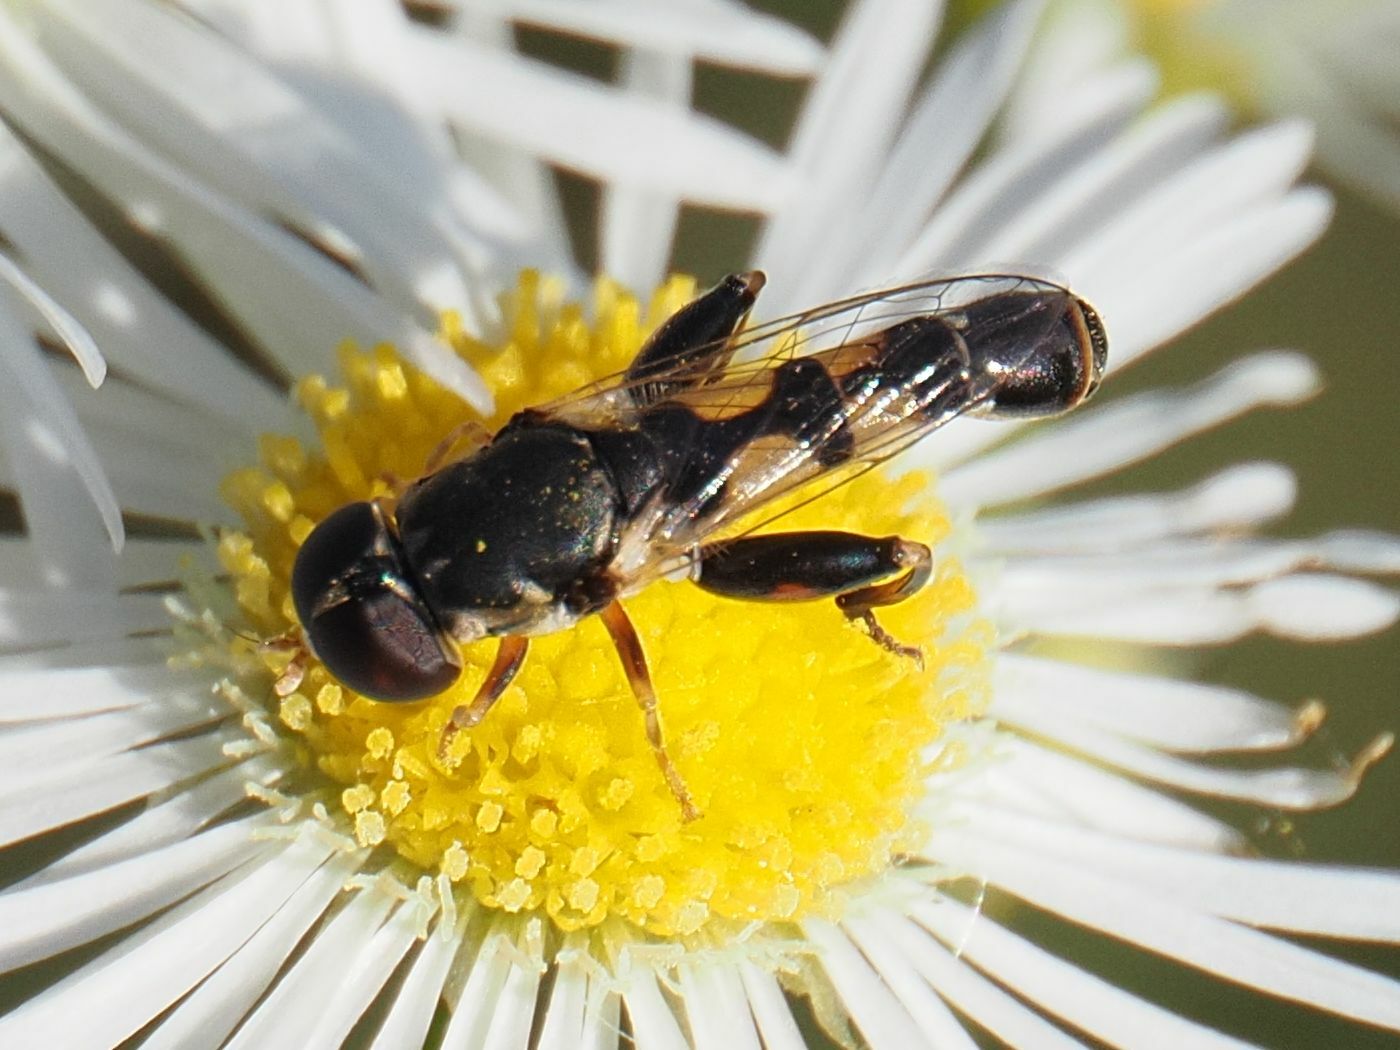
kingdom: Animalia
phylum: Arthropoda
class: Insecta
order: Diptera
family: Syrphidae
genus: Syritta
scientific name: Syritta pipiens
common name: Hover fly
